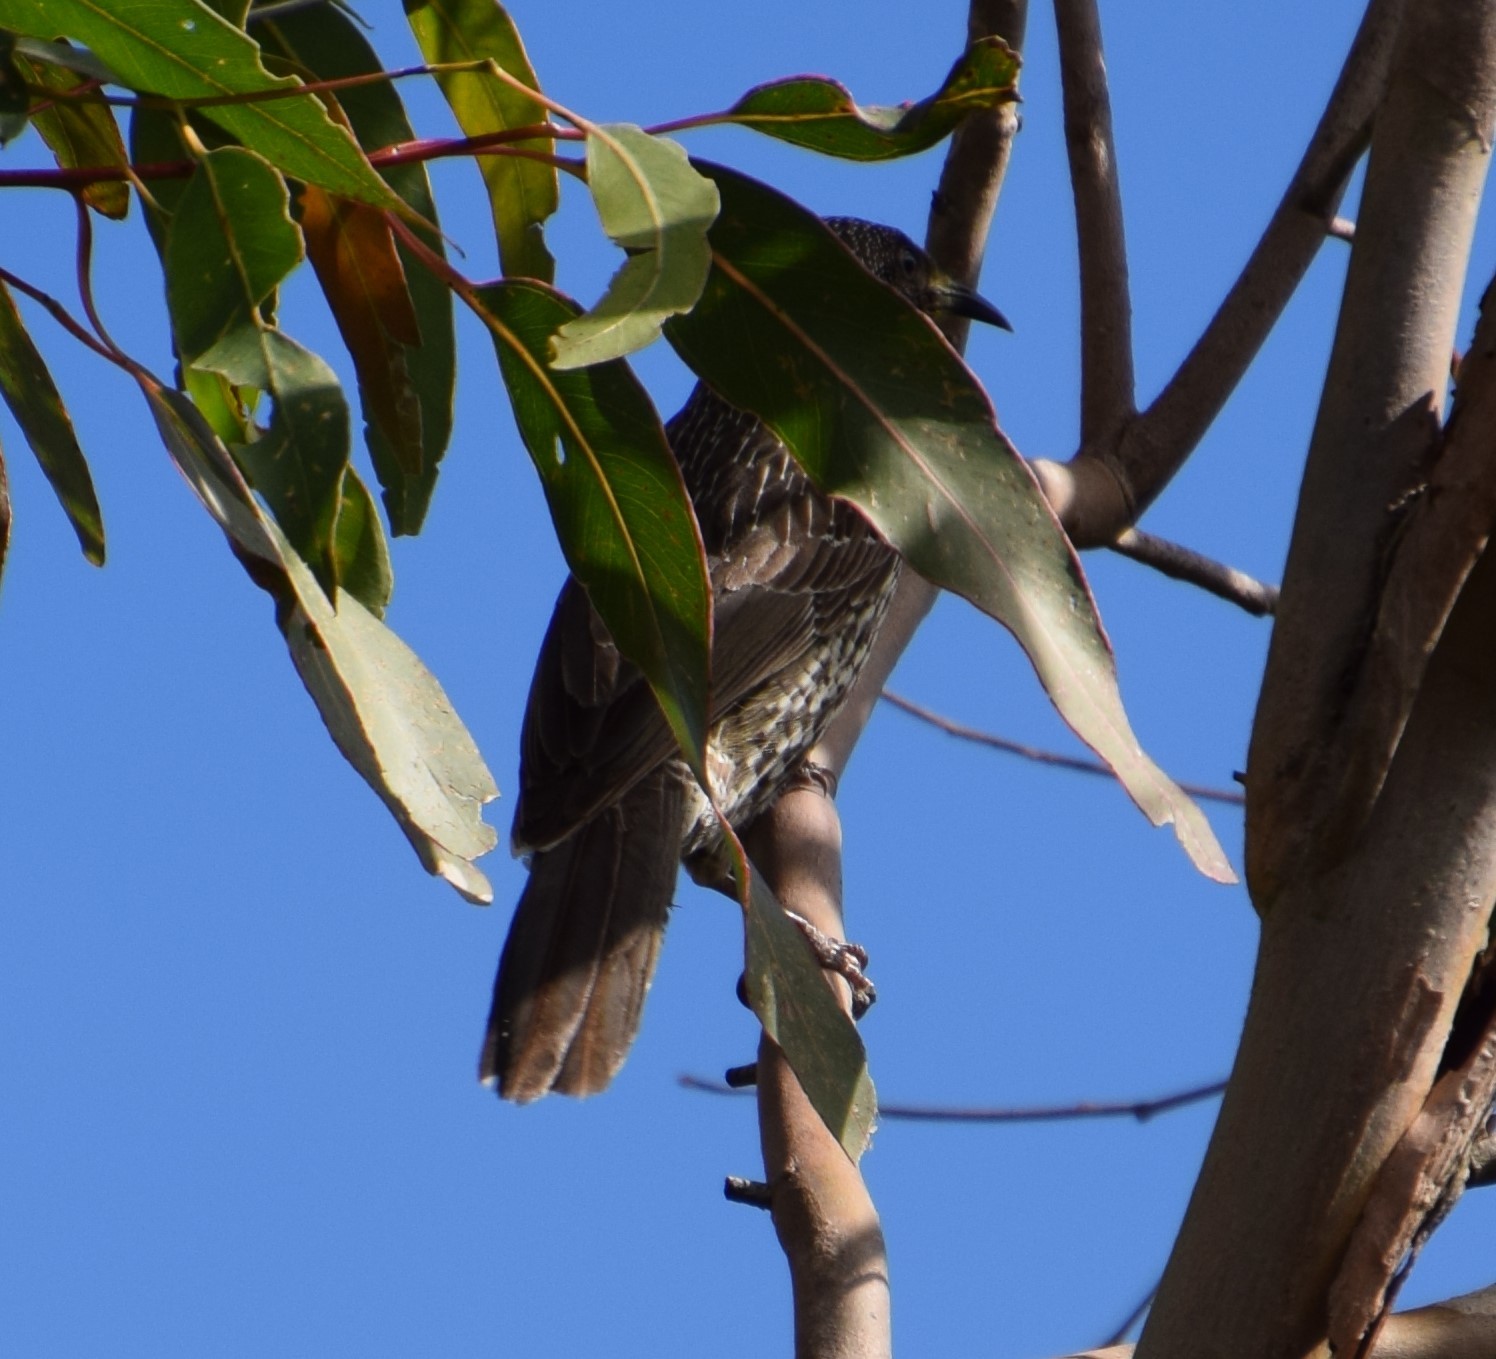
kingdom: Animalia
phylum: Chordata
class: Aves
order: Passeriformes
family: Meliphagidae
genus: Anthochaera
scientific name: Anthochaera chrysoptera
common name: Little wattlebird
